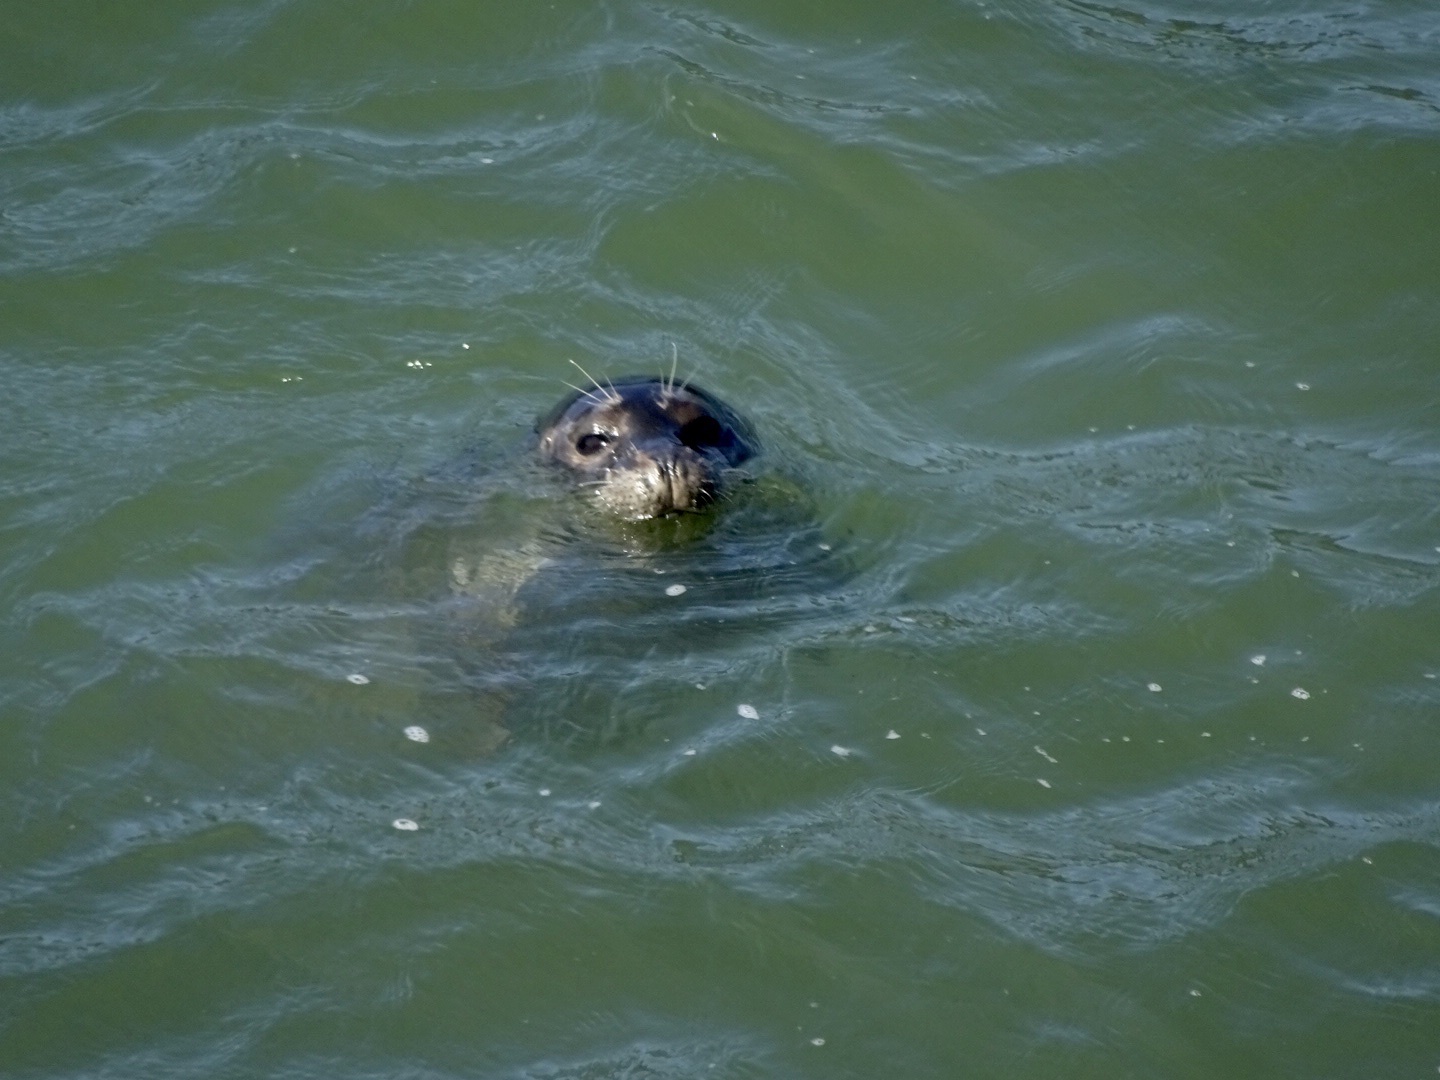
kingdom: Animalia
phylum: Chordata
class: Mammalia
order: Carnivora
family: Phocidae
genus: Phoca
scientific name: Phoca vitulina
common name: Harbor seal
